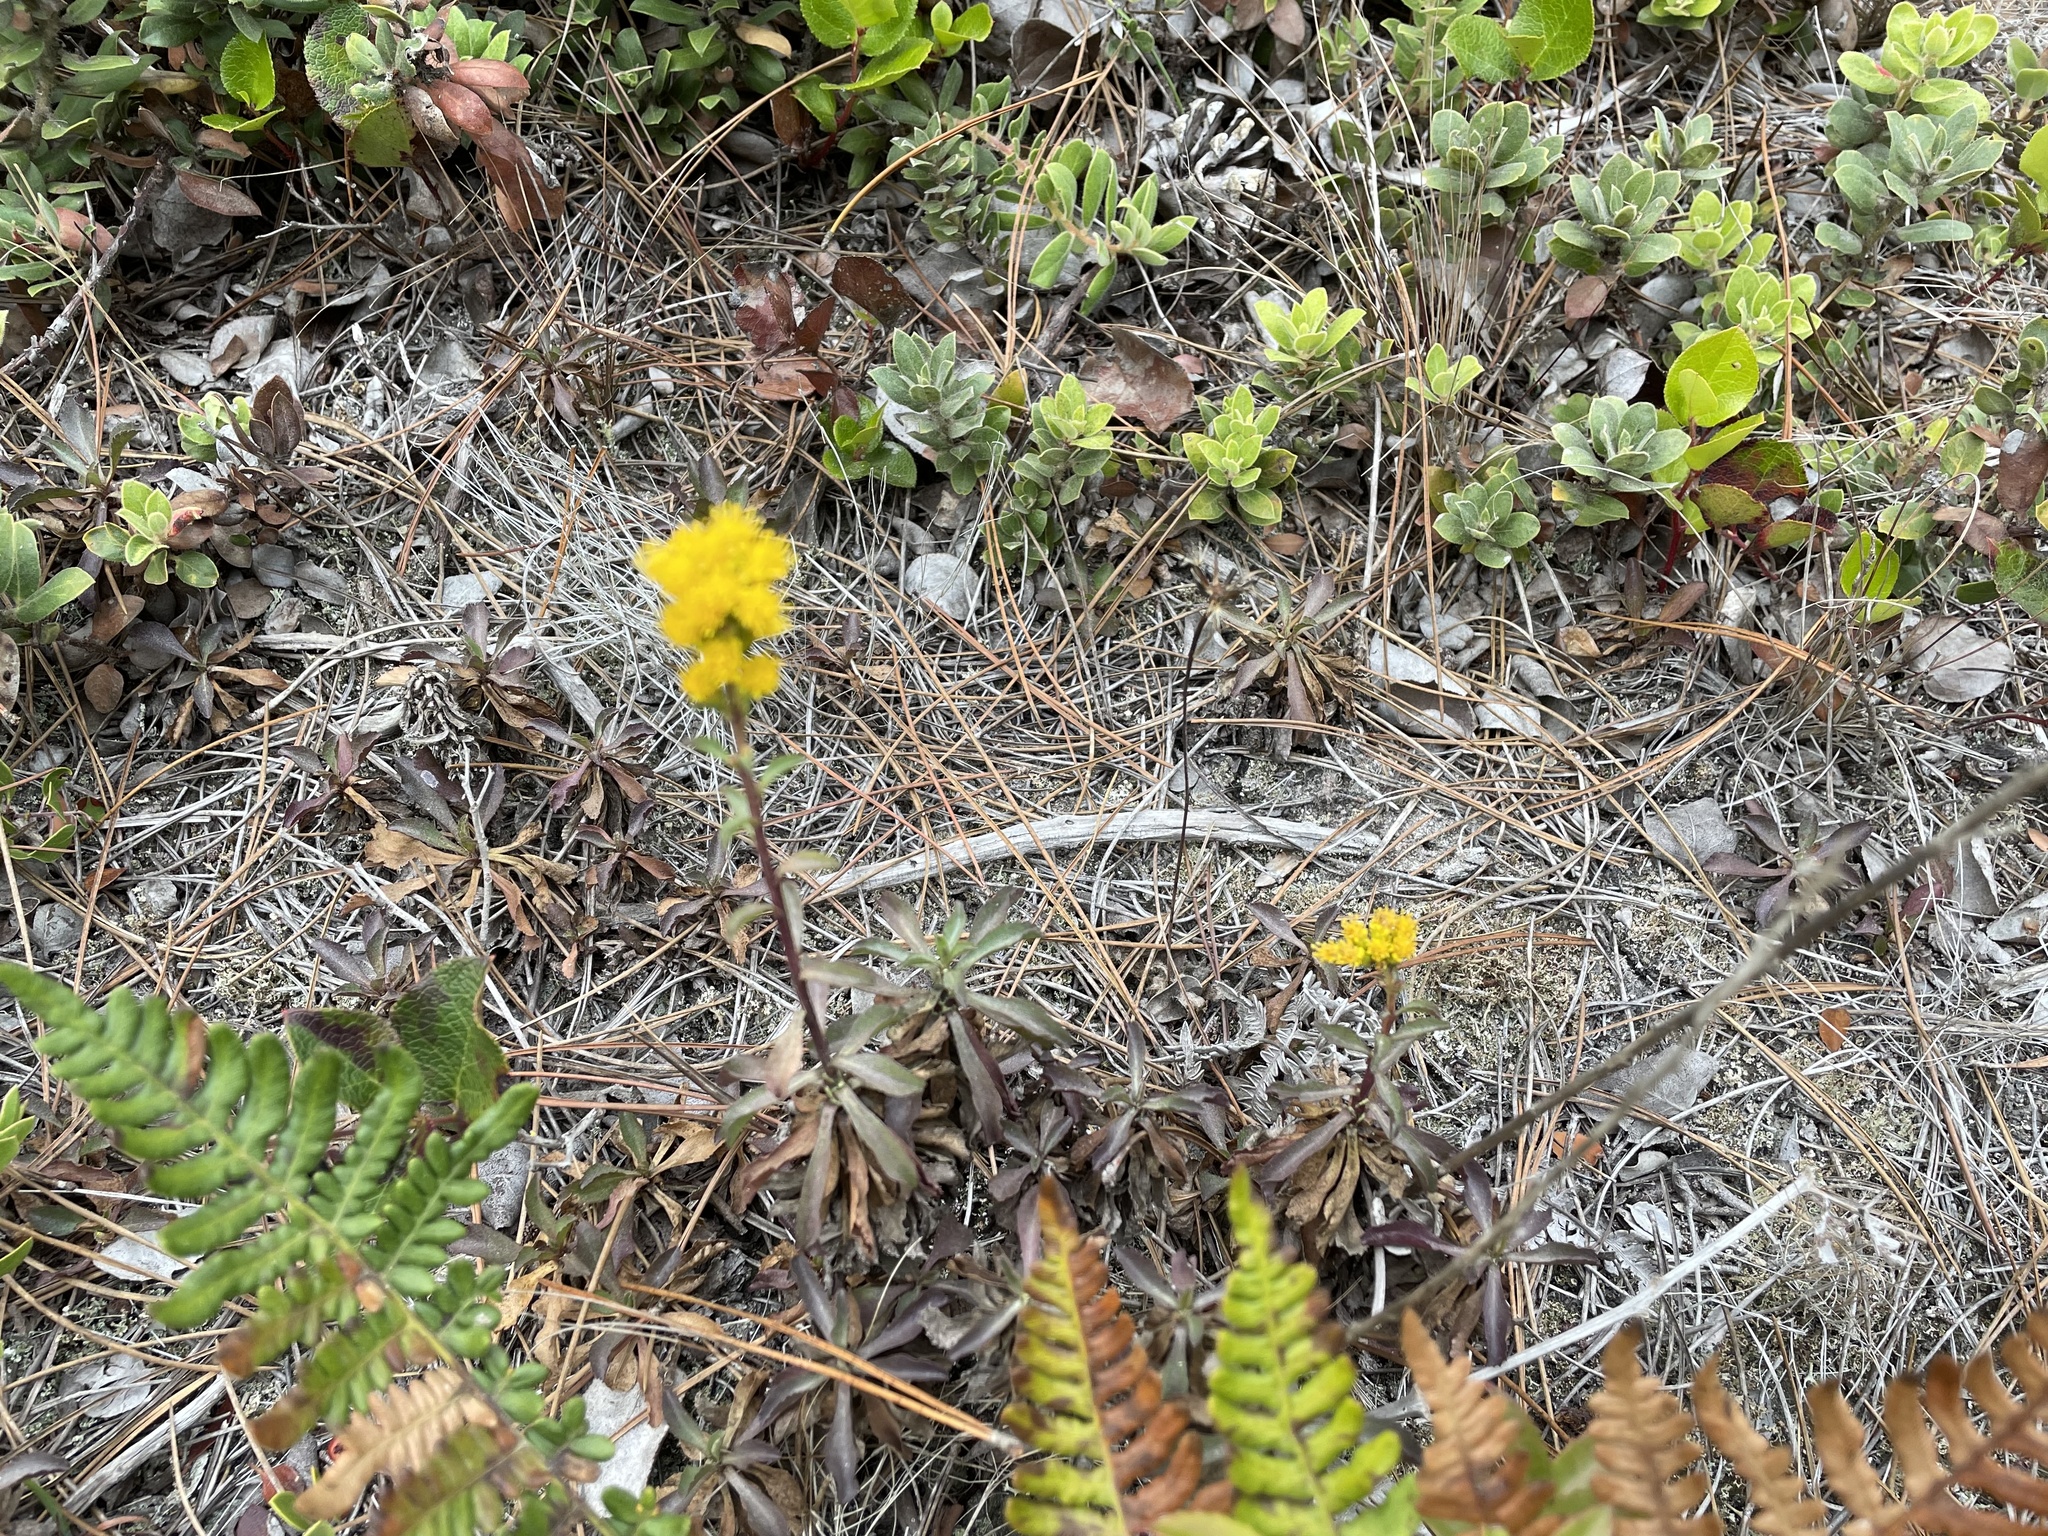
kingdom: Plantae
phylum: Tracheophyta
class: Magnoliopsida
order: Asterales
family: Asteraceae
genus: Solidago
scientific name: Solidago spathulata
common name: Coast goldenrod
